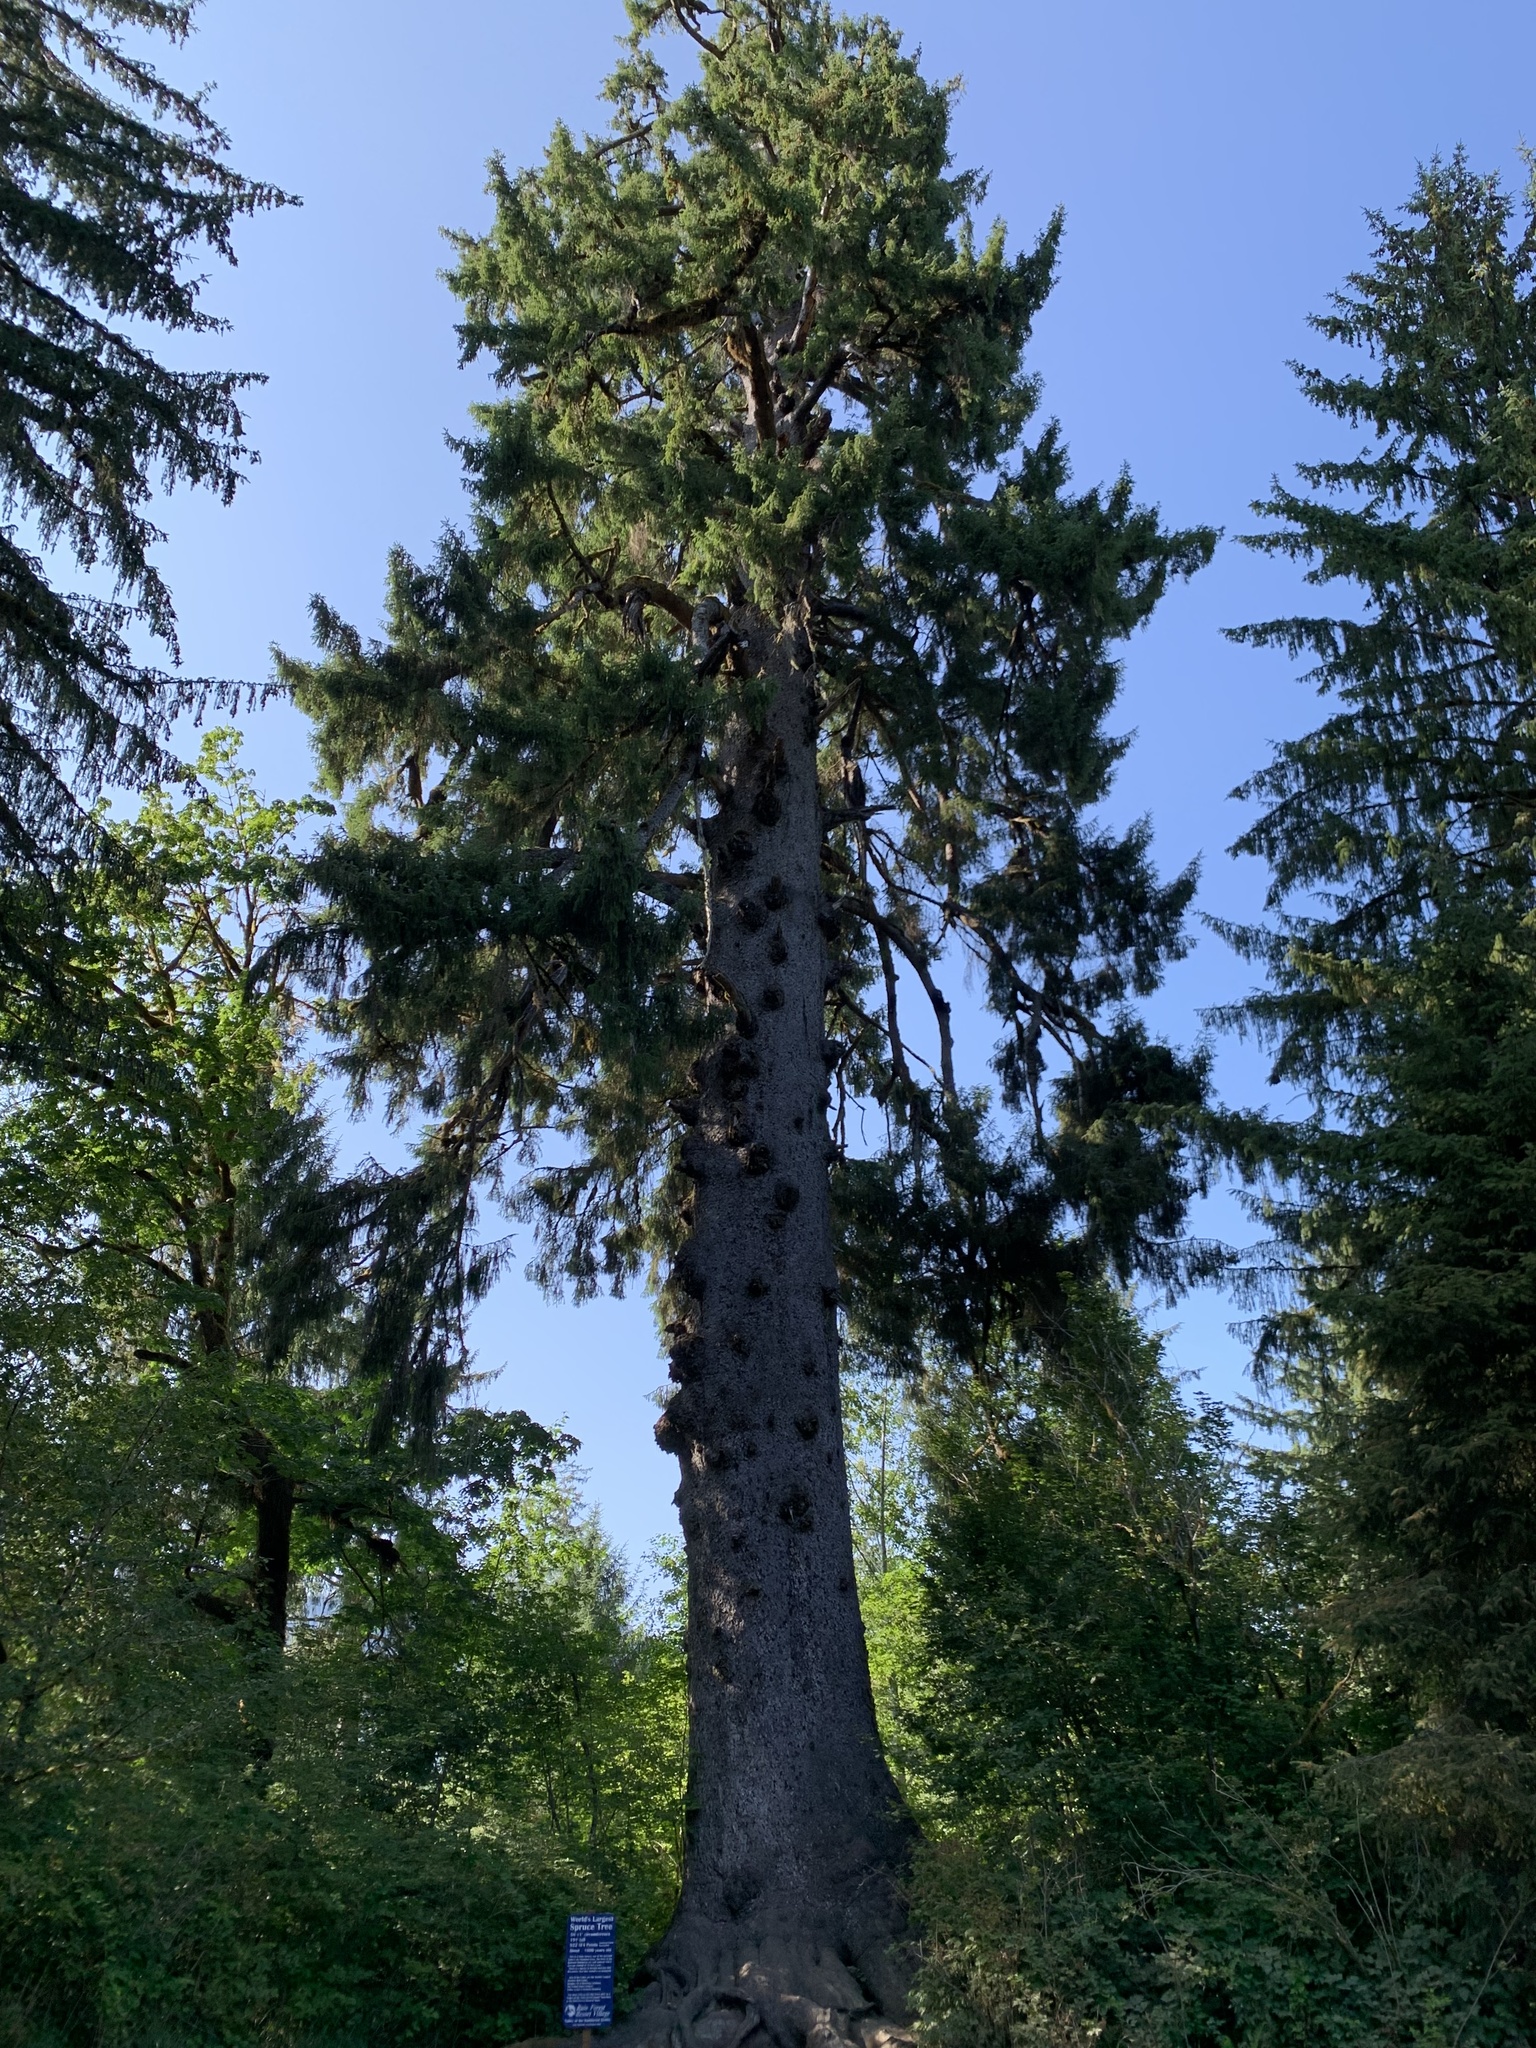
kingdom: Plantae
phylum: Tracheophyta
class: Pinopsida
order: Pinales
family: Pinaceae
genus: Picea
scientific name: Picea sitchensis
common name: Sitka spruce
